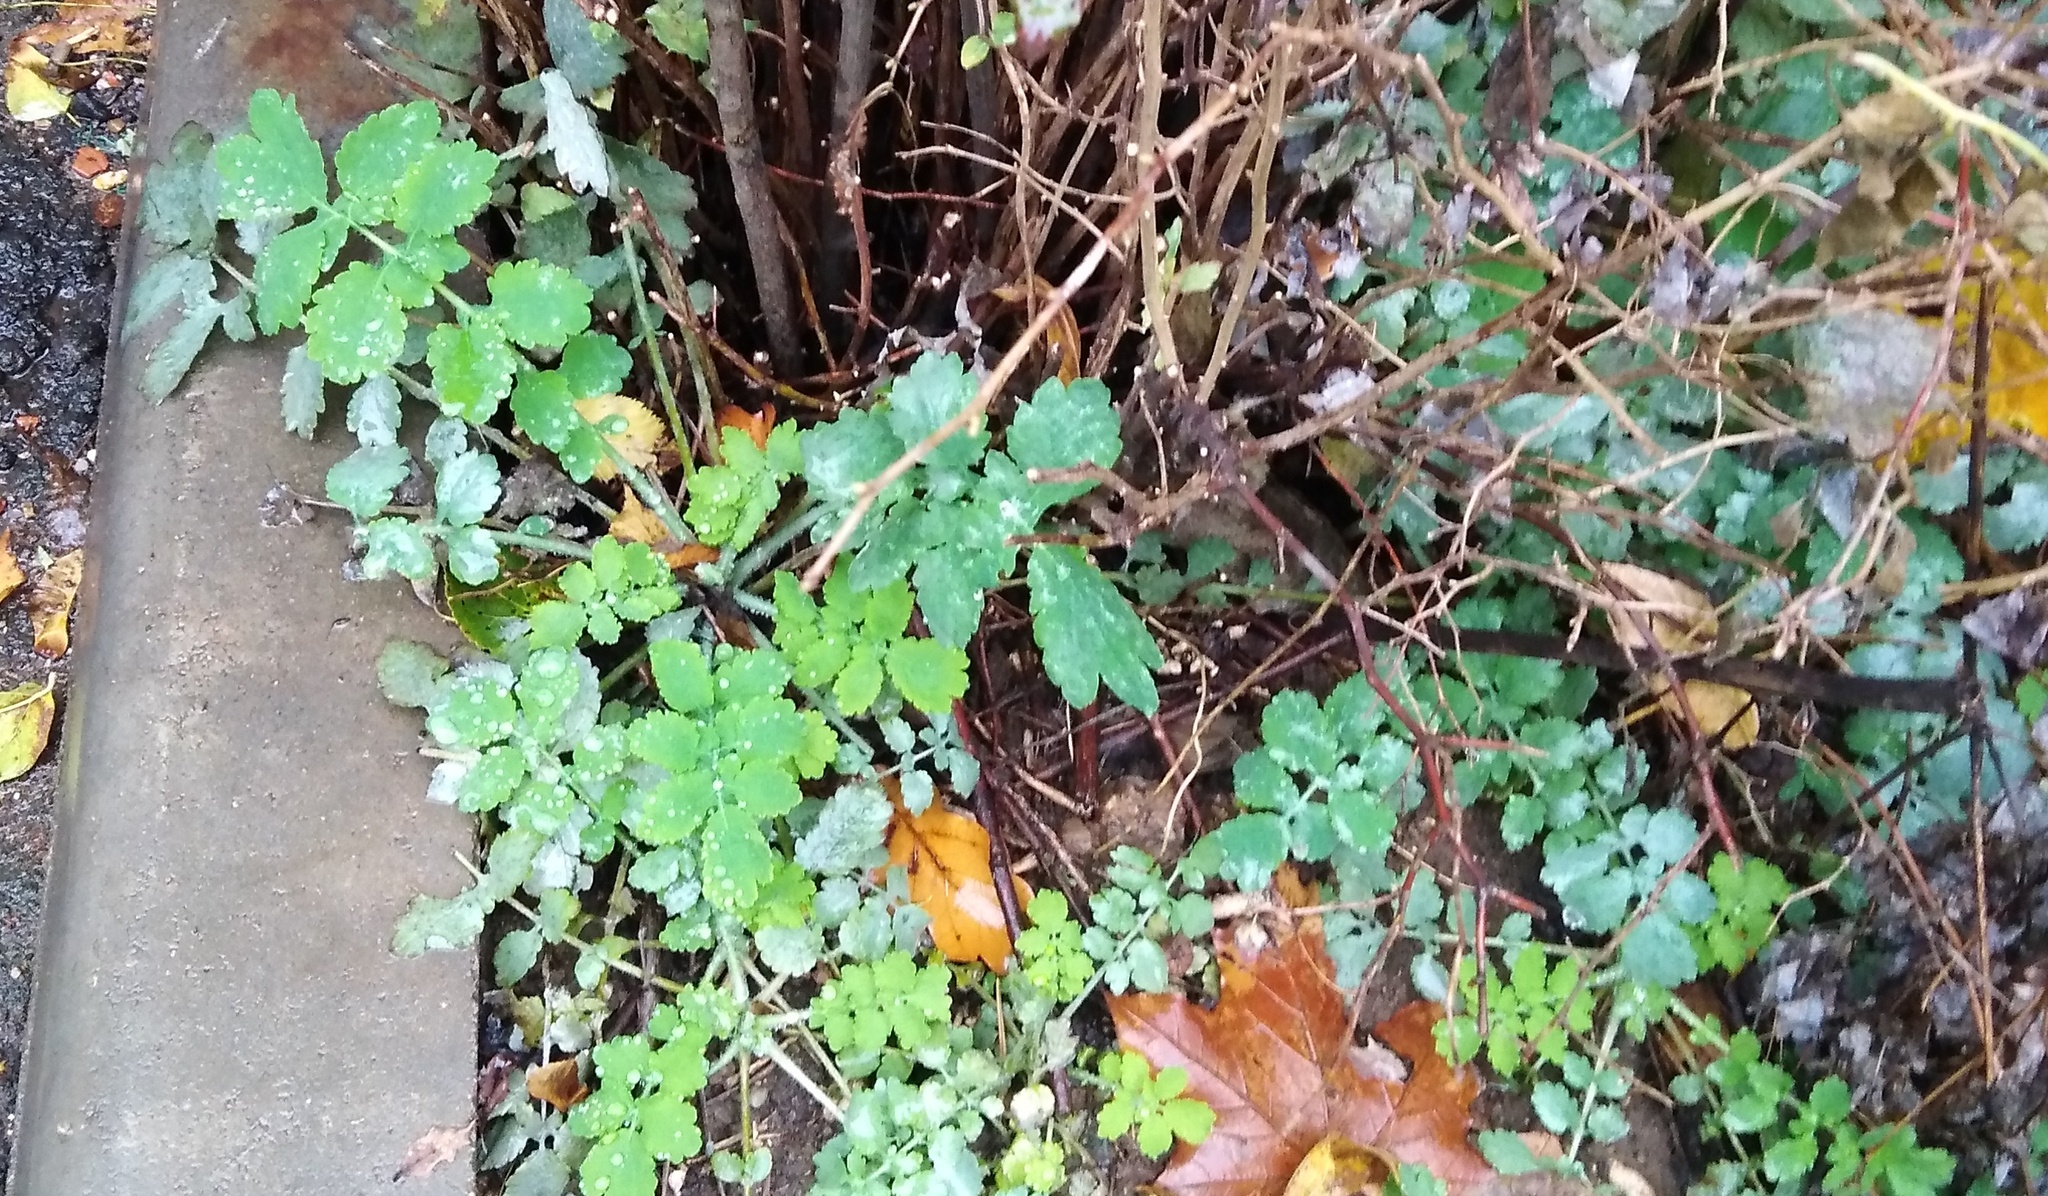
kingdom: Plantae
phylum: Tracheophyta
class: Magnoliopsida
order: Ranunculales
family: Papaveraceae
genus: Chelidonium
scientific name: Chelidonium majus
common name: Greater celandine
